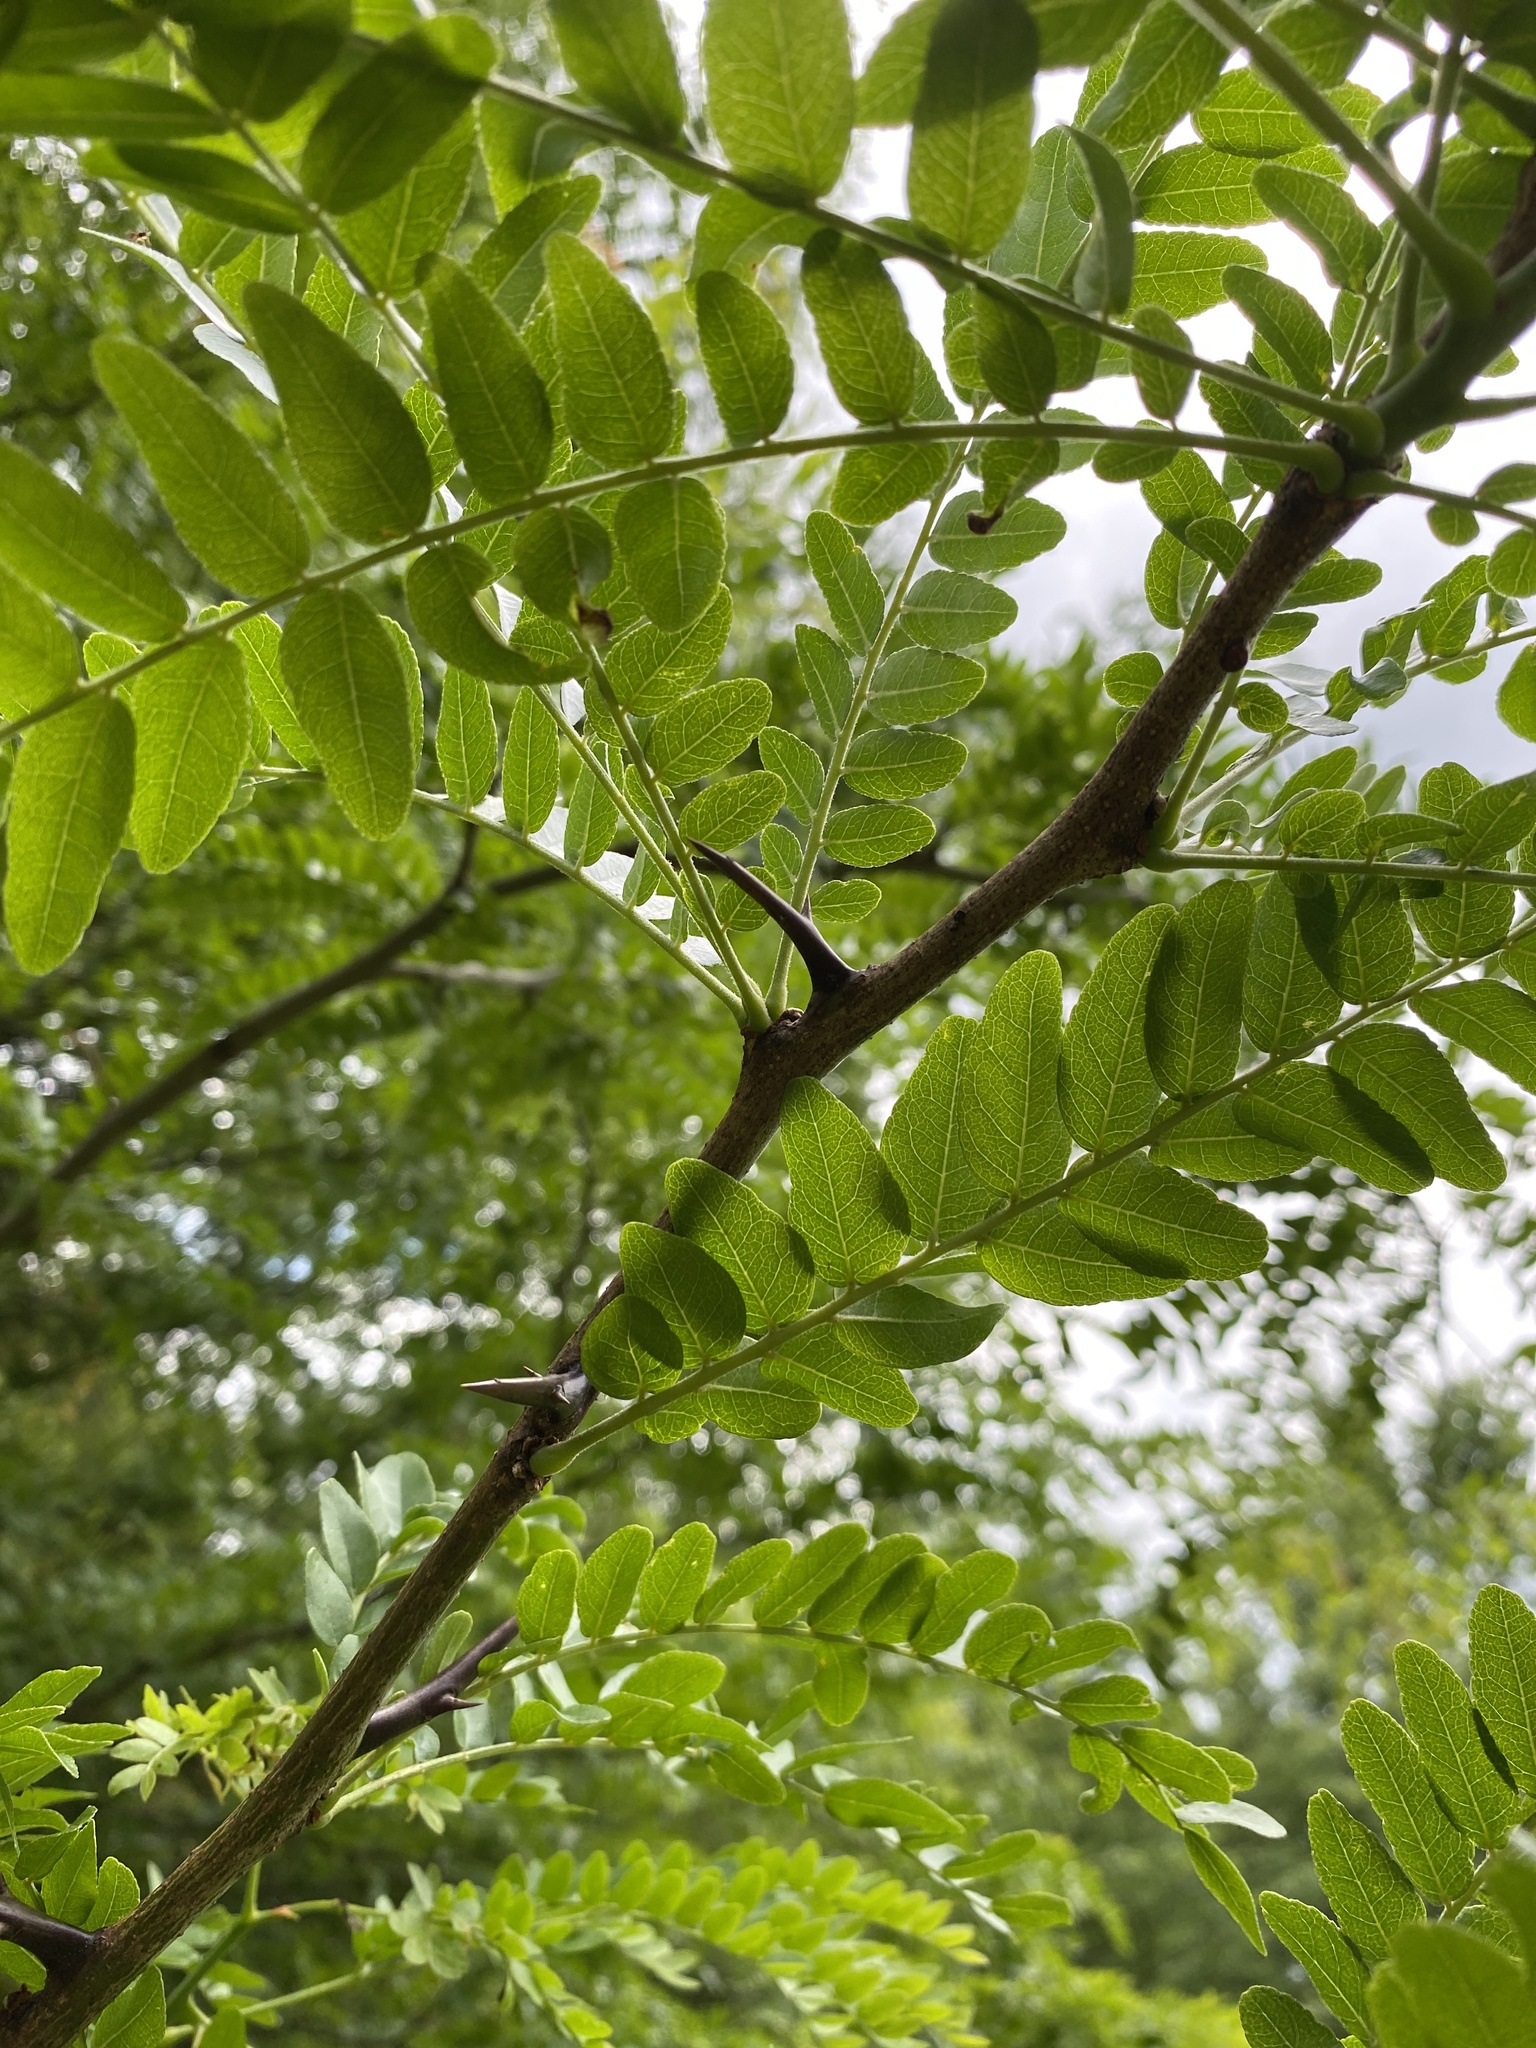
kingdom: Plantae
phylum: Tracheophyta
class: Magnoliopsida
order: Fabales
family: Fabaceae
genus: Gleditsia
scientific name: Gleditsia triacanthos
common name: Common honeylocust
